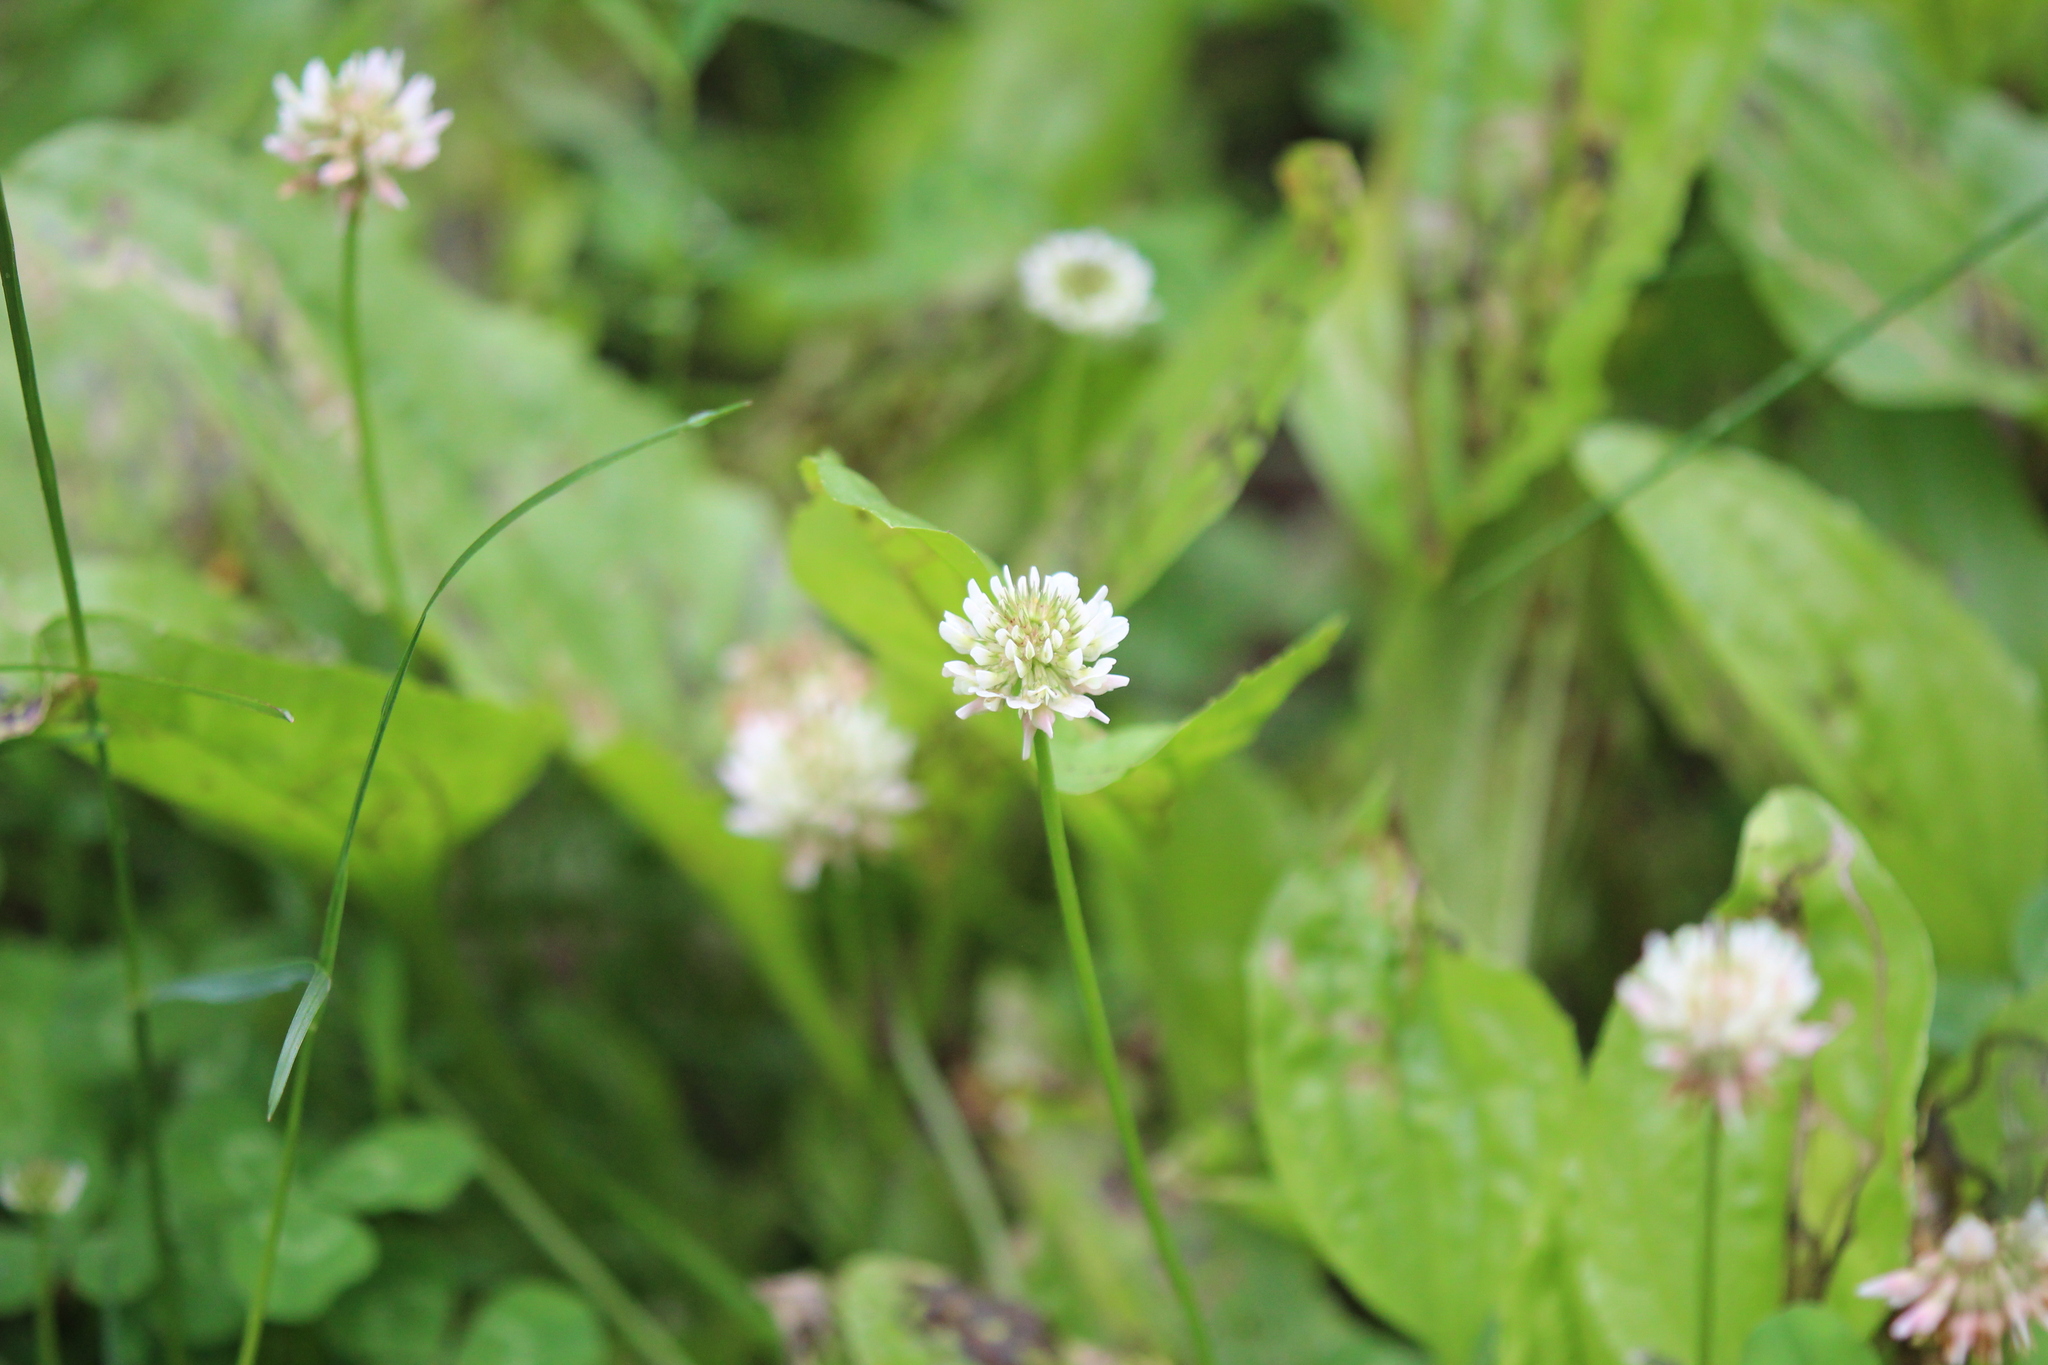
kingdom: Plantae
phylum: Tracheophyta
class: Magnoliopsida
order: Fabales
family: Fabaceae
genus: Trifolium
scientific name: Trifolium repens
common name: White clover
